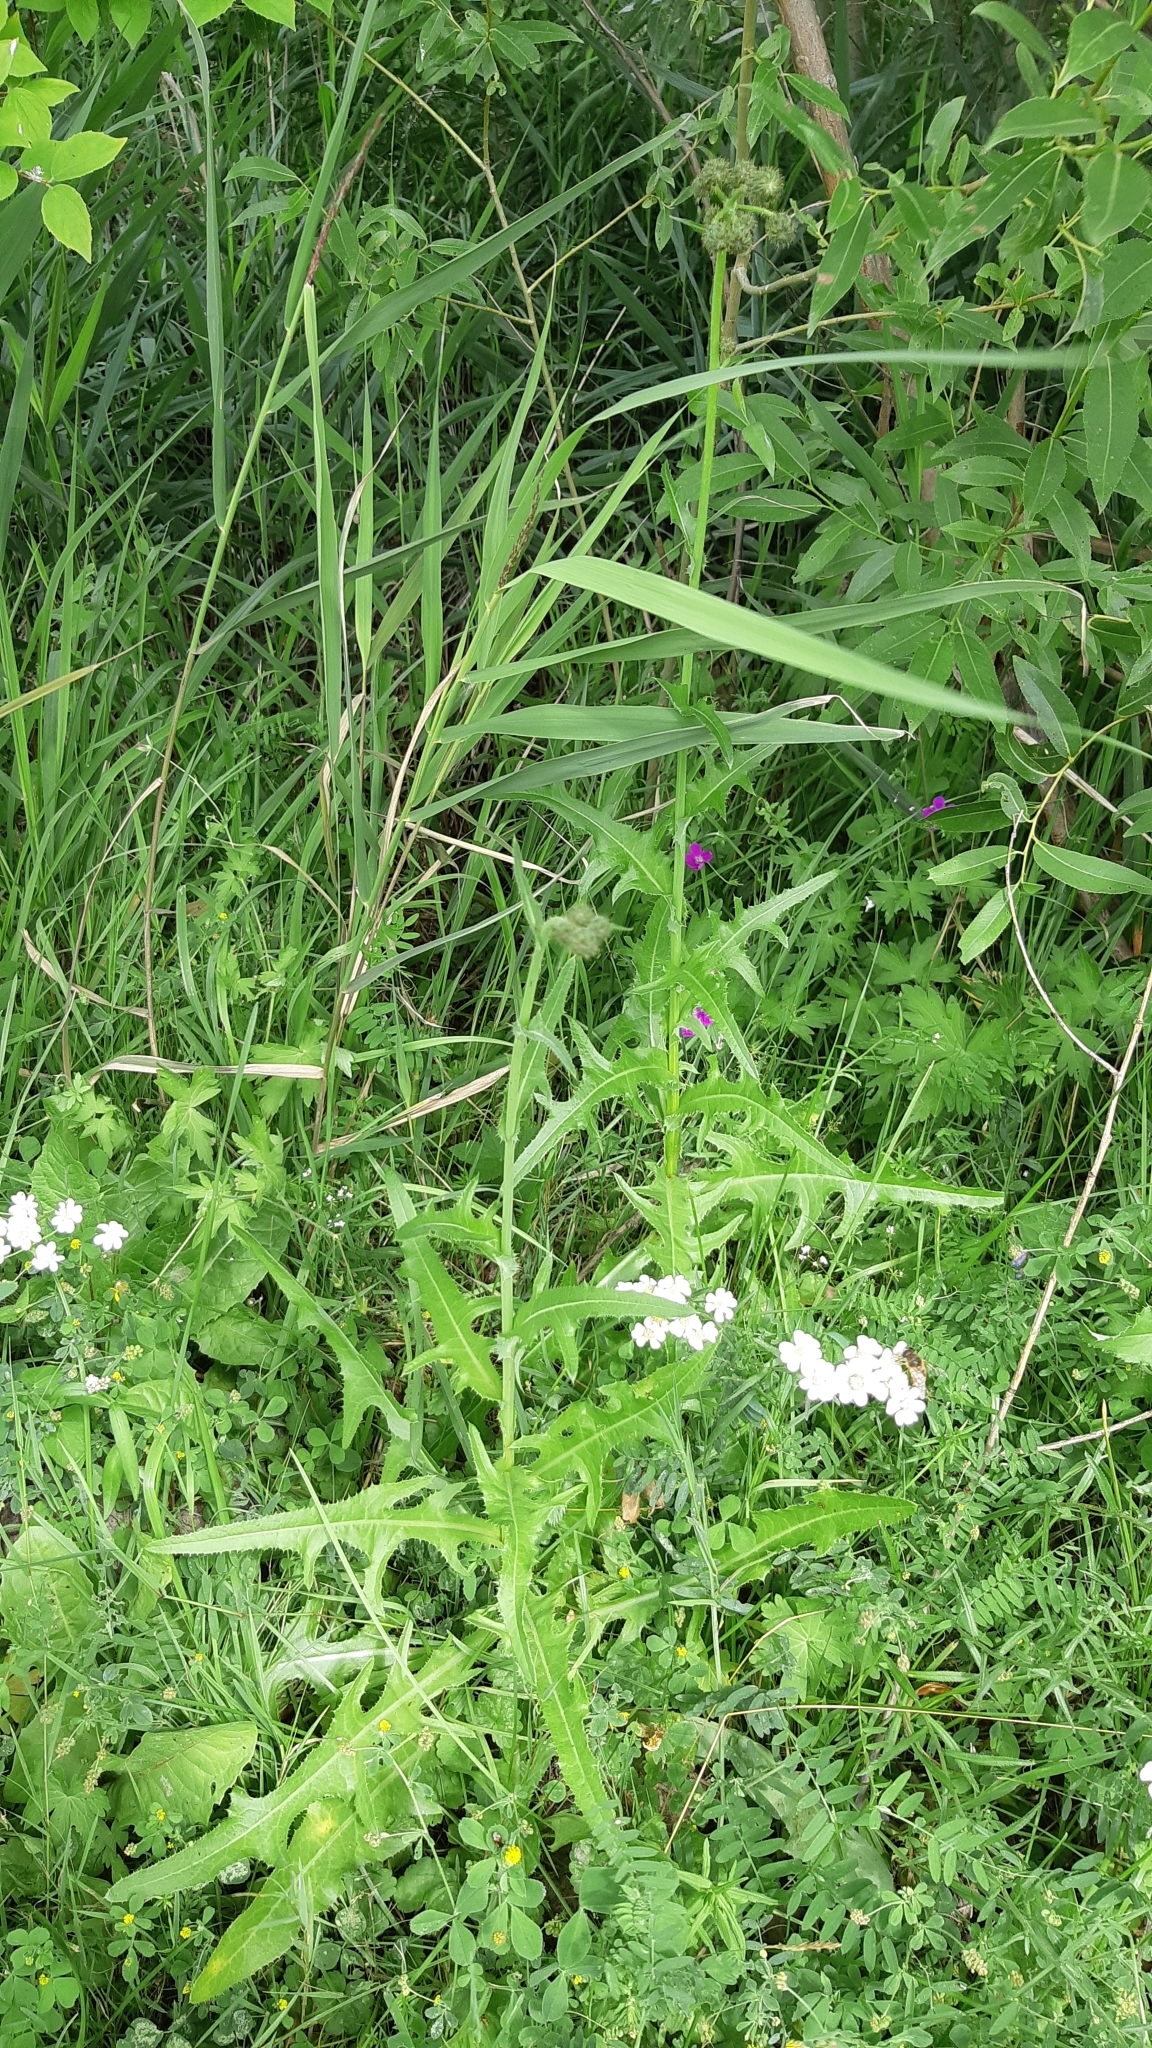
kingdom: Plantae
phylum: Tracheophyta
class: Magnoliopsida
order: Asterales
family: Asteraceae
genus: Sonchus
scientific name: Sonchus arvensis
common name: Perennial sow-thistle
